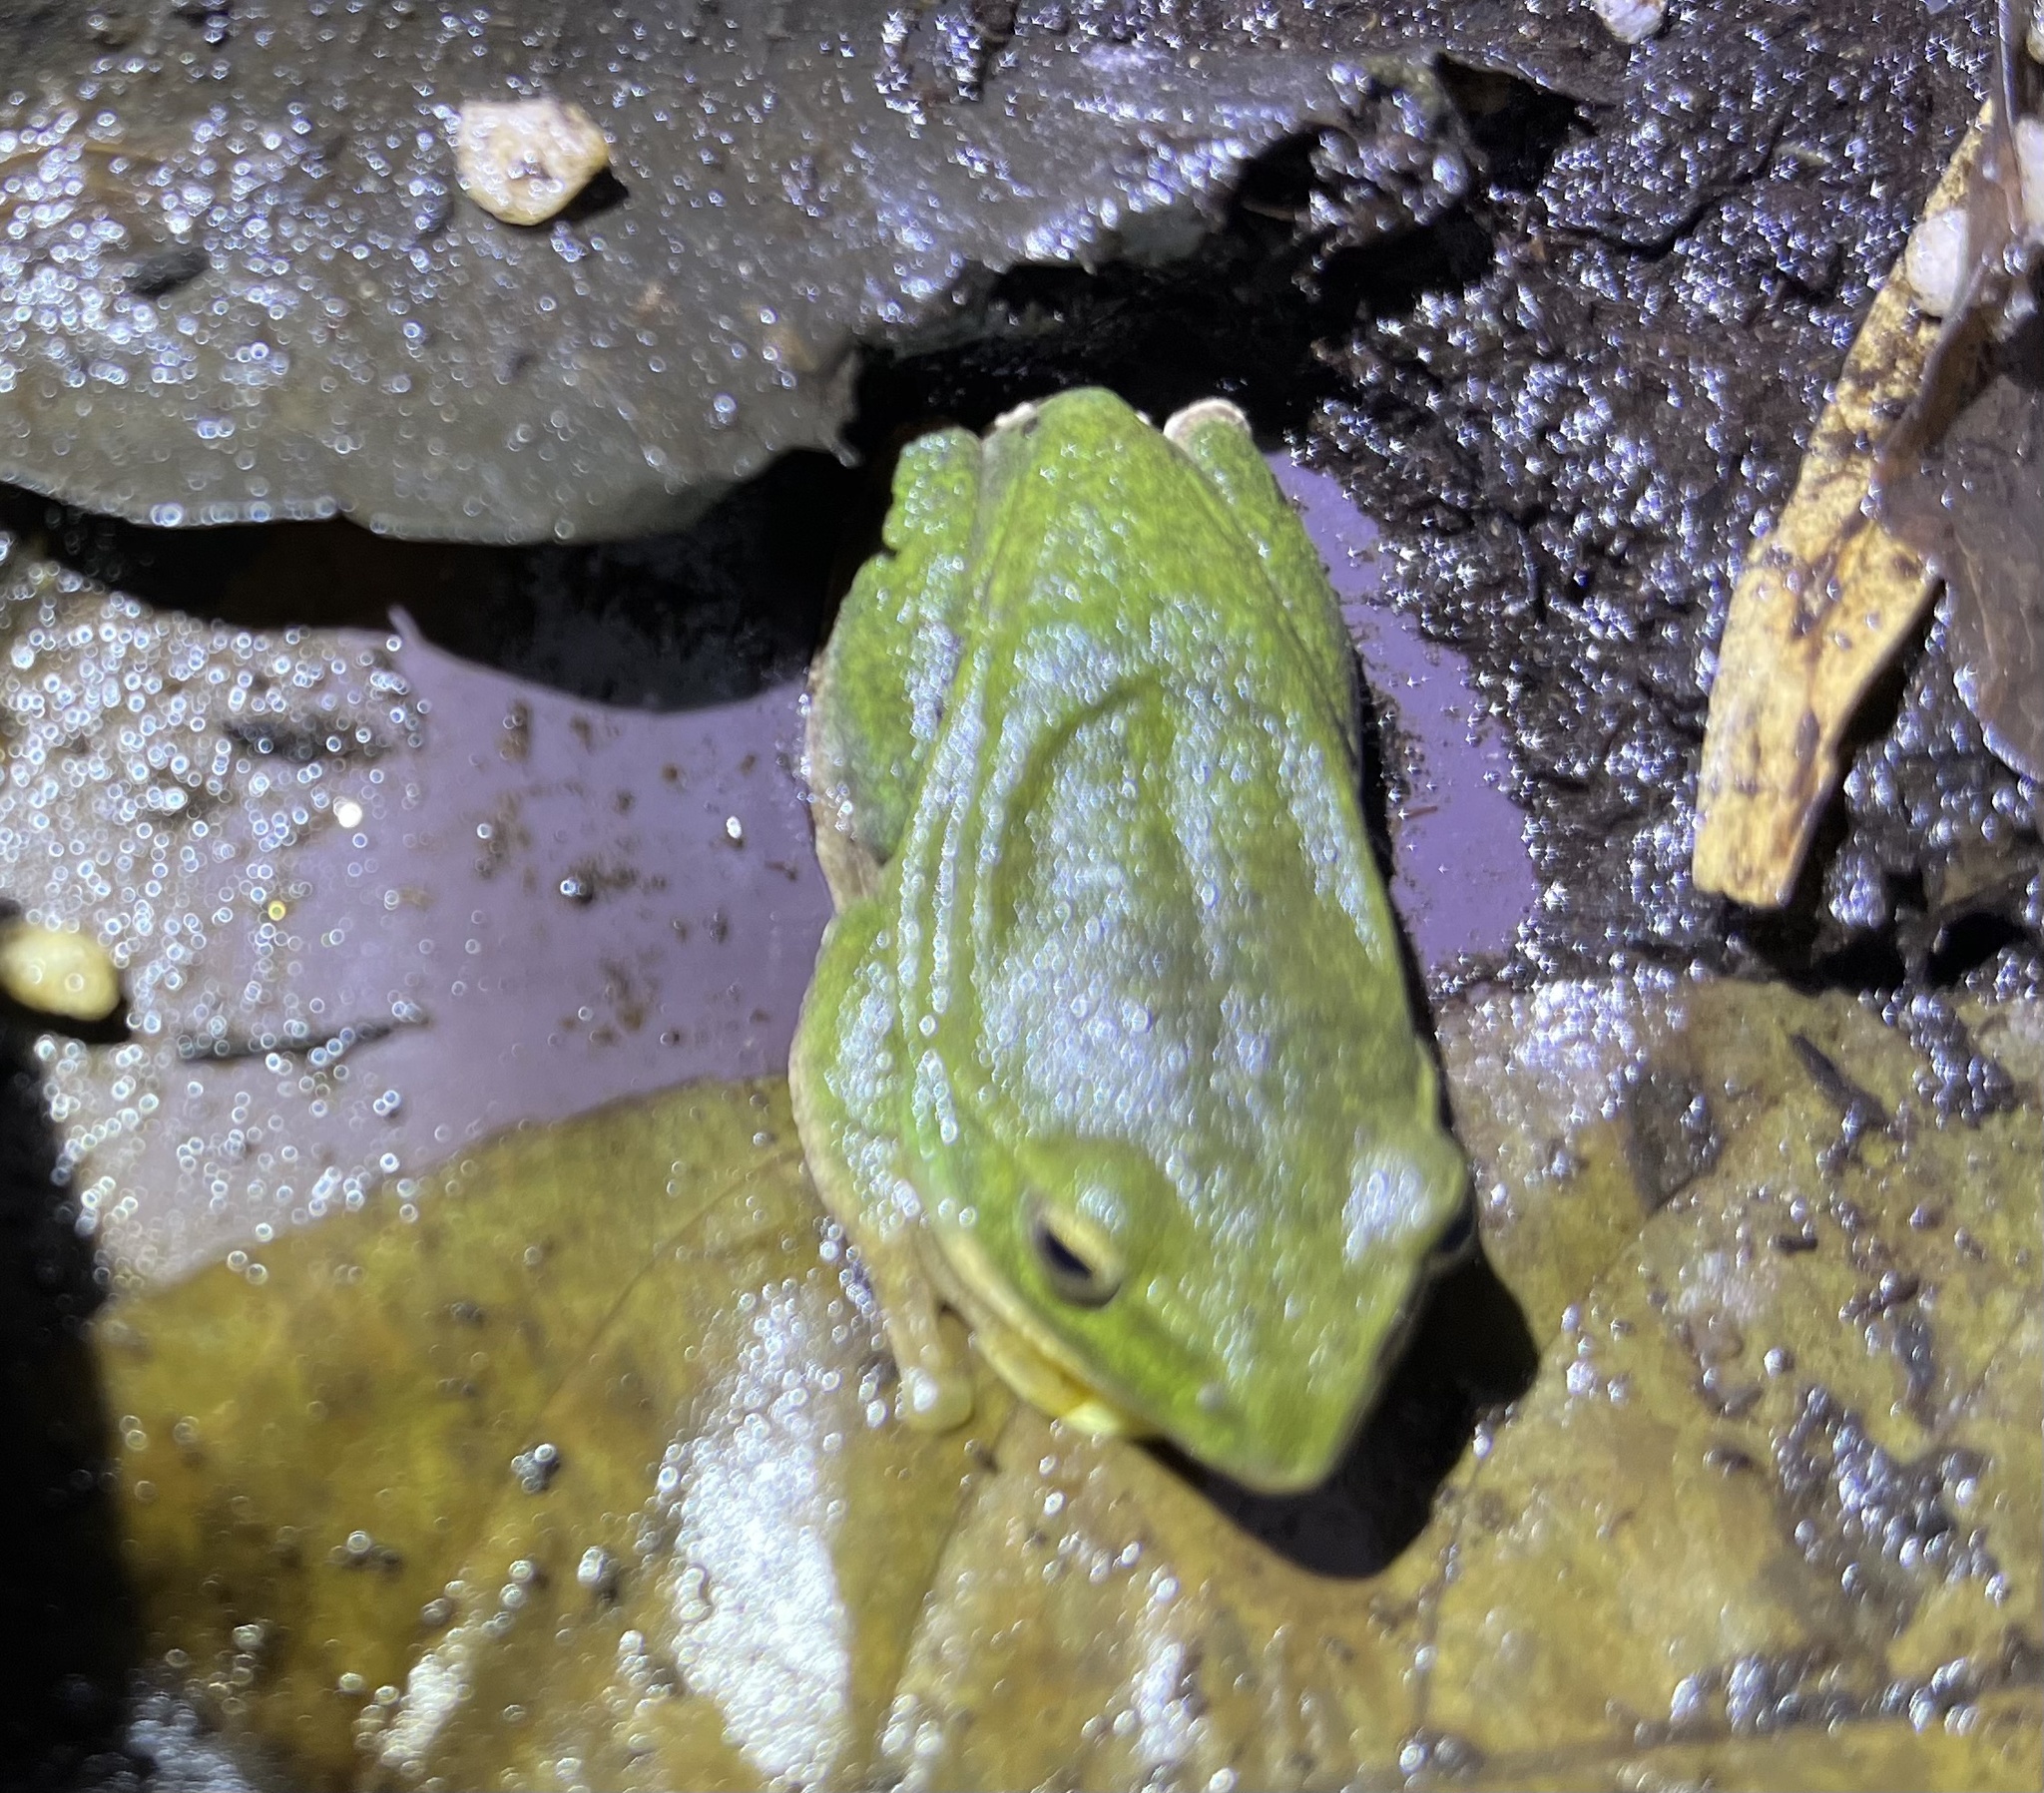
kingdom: Animalia
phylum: Chordata
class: Amphibia
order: Anura
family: Rhacophoridae
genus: Zhangixalus
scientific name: Zhangixalus taipeianus
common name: Taipei flying frog
